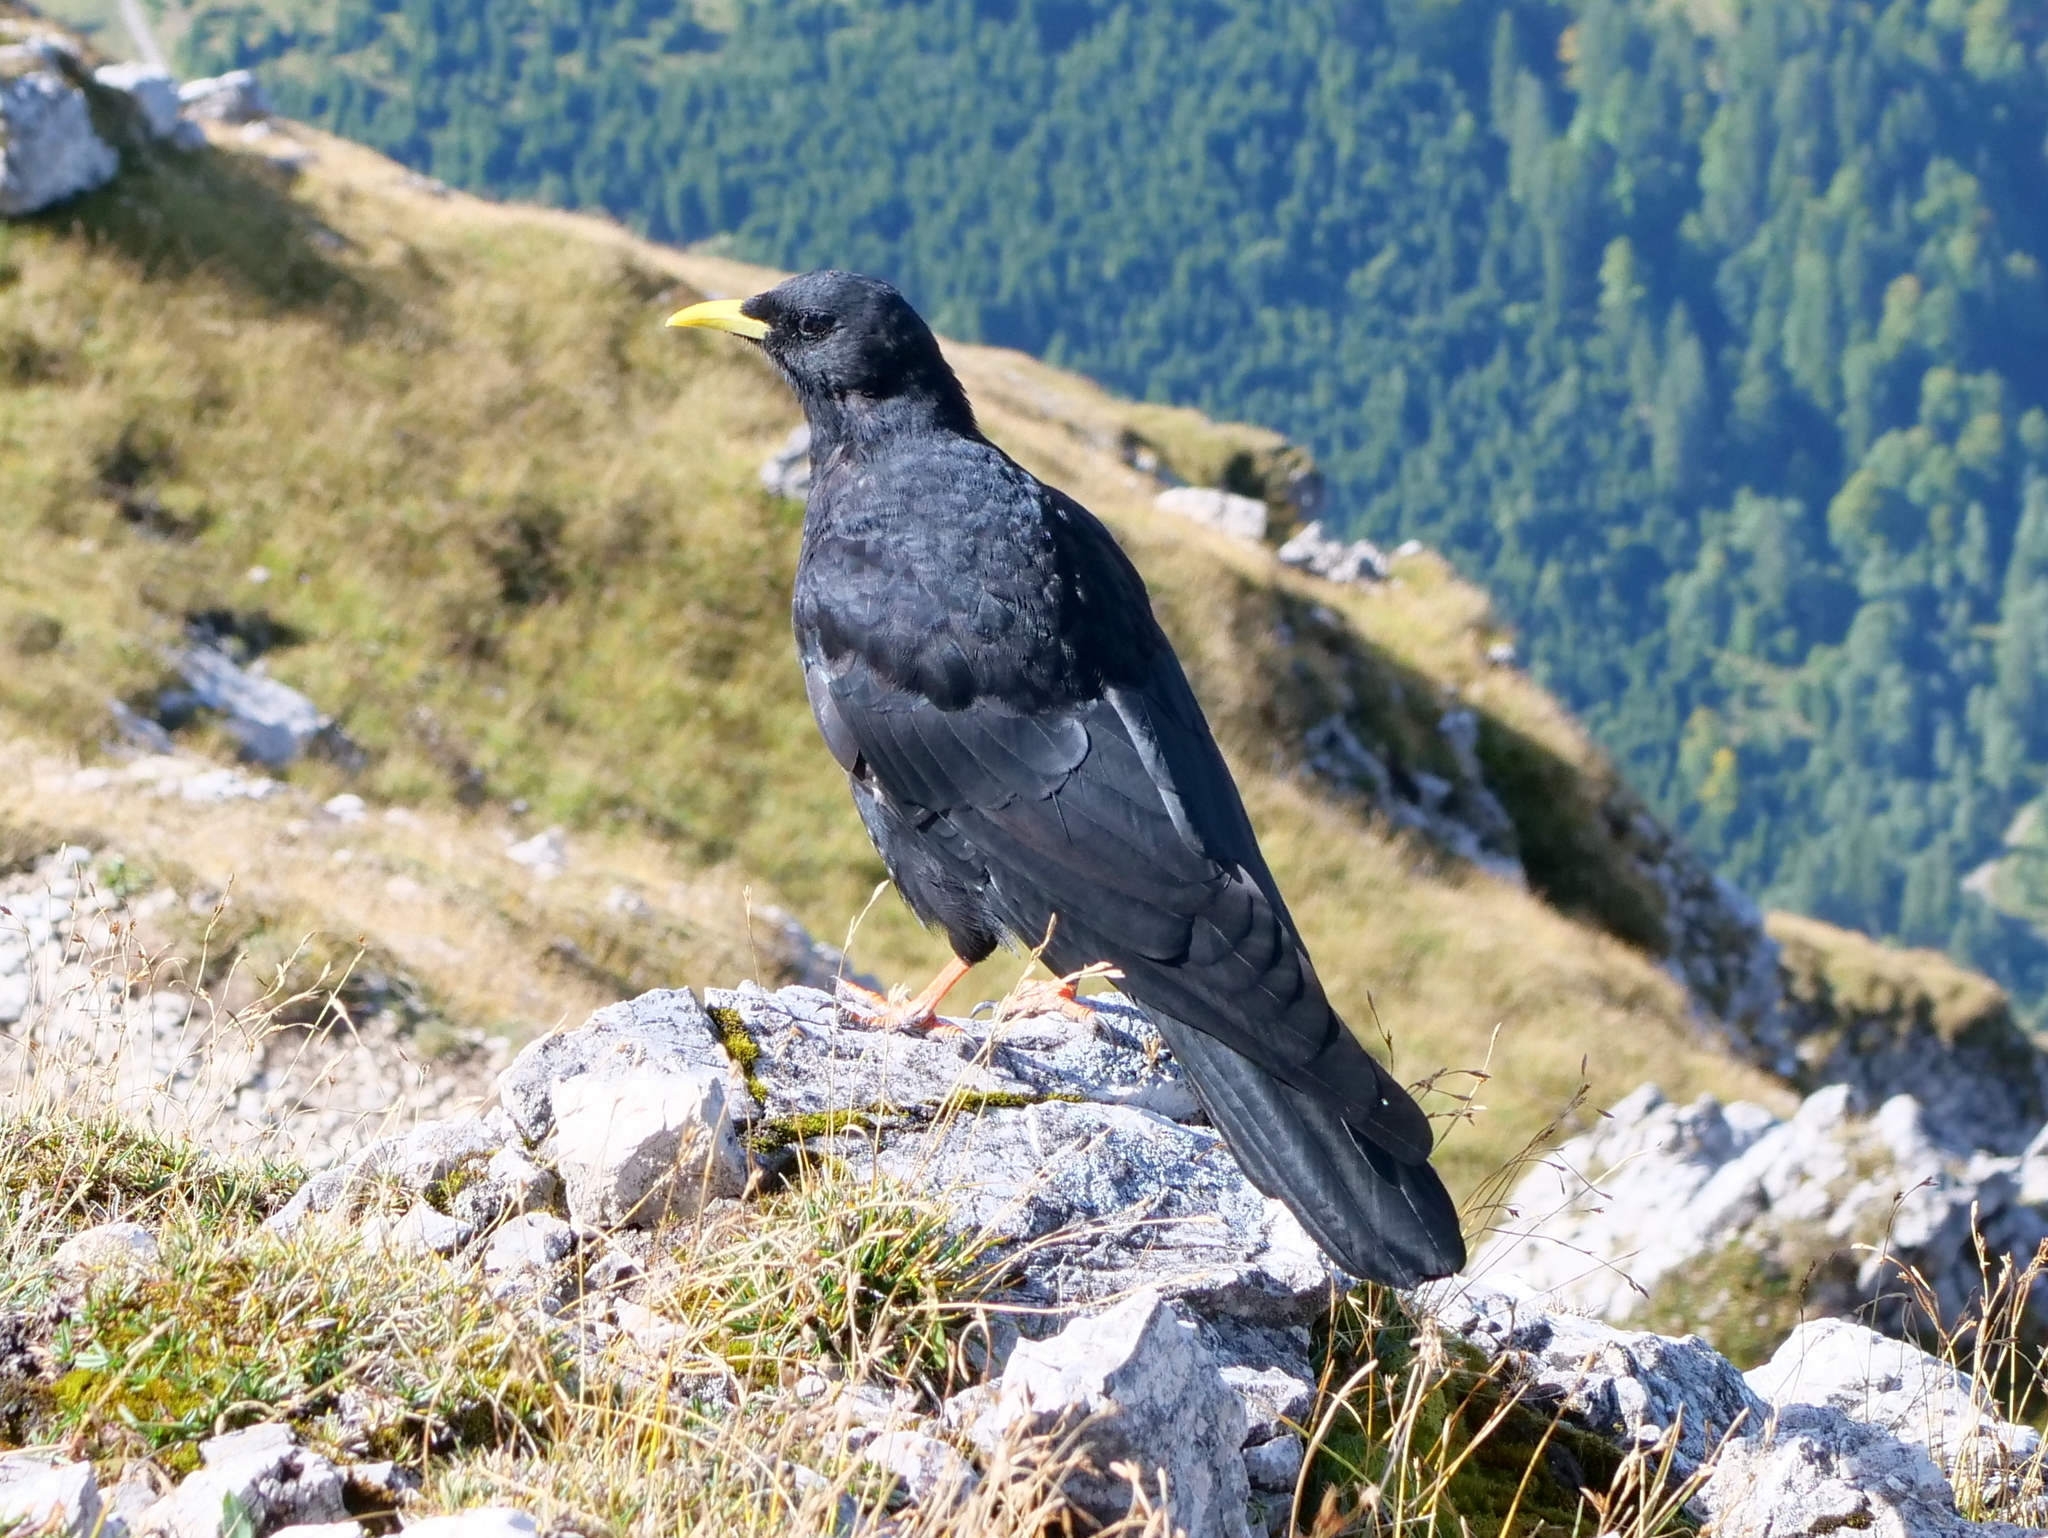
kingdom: Animalia
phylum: Chordata
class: Aves
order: Passeriformes
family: Corvidae
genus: Pyrrhocorax
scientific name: Pyrrhocorax graculus
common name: Alpine chough
